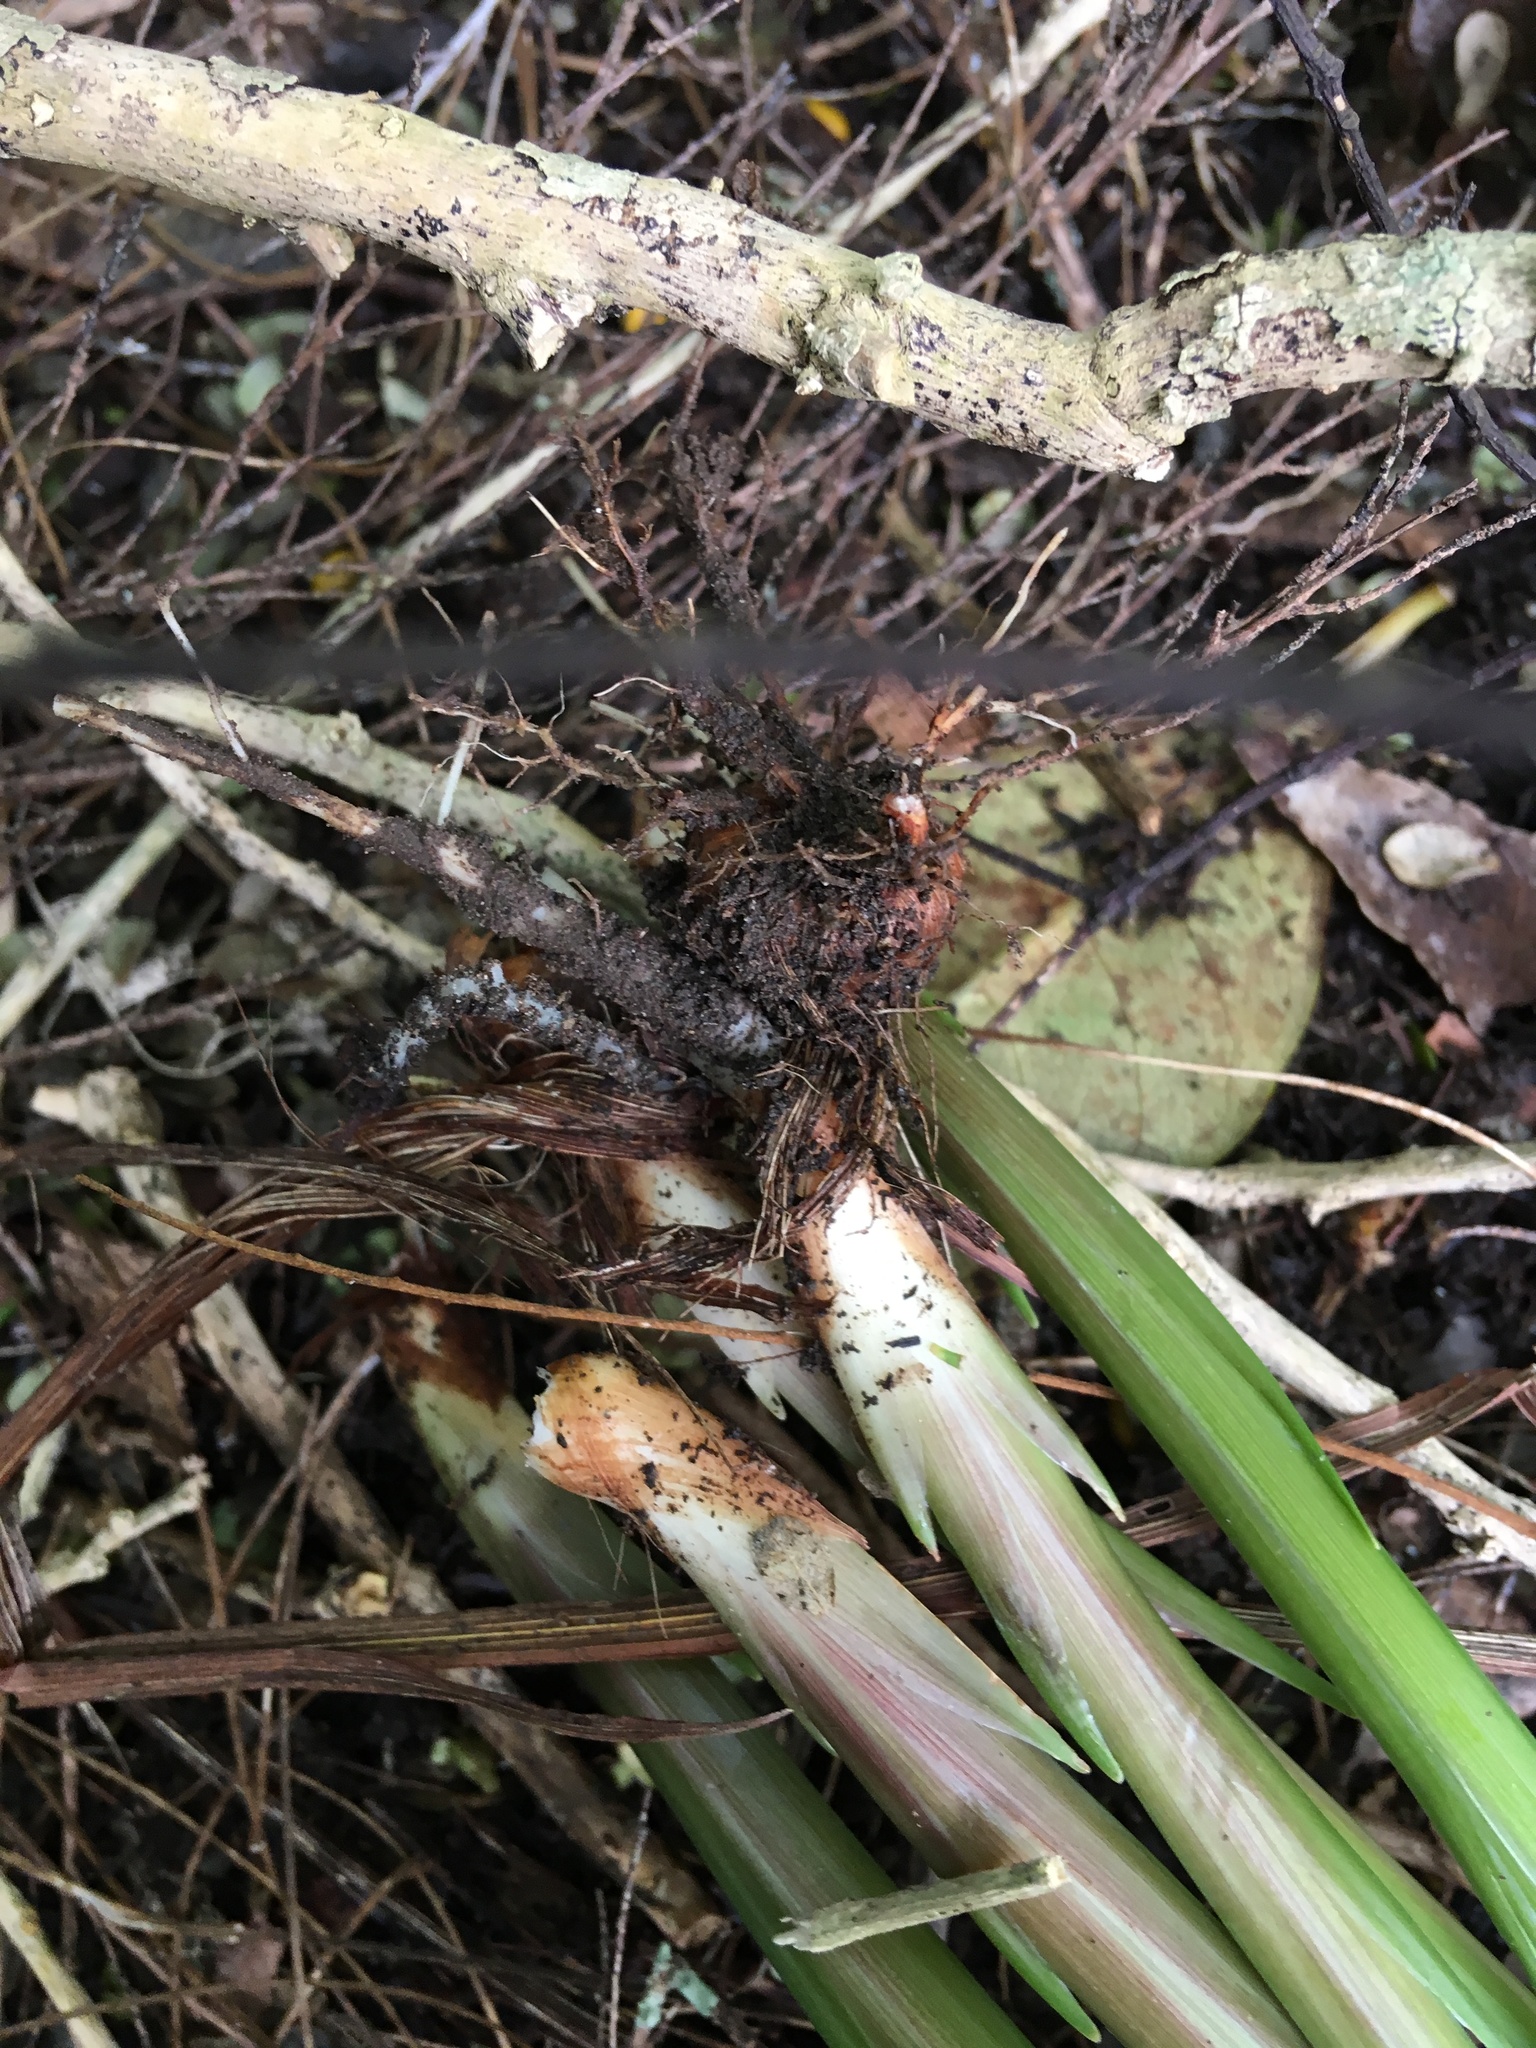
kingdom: Plantae
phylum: Tracheophyta
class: Liliopsida
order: Asparagales
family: Iridaceae
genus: Crocosmia
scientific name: Crocosmia crocosmiiflora
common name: Montbretia
